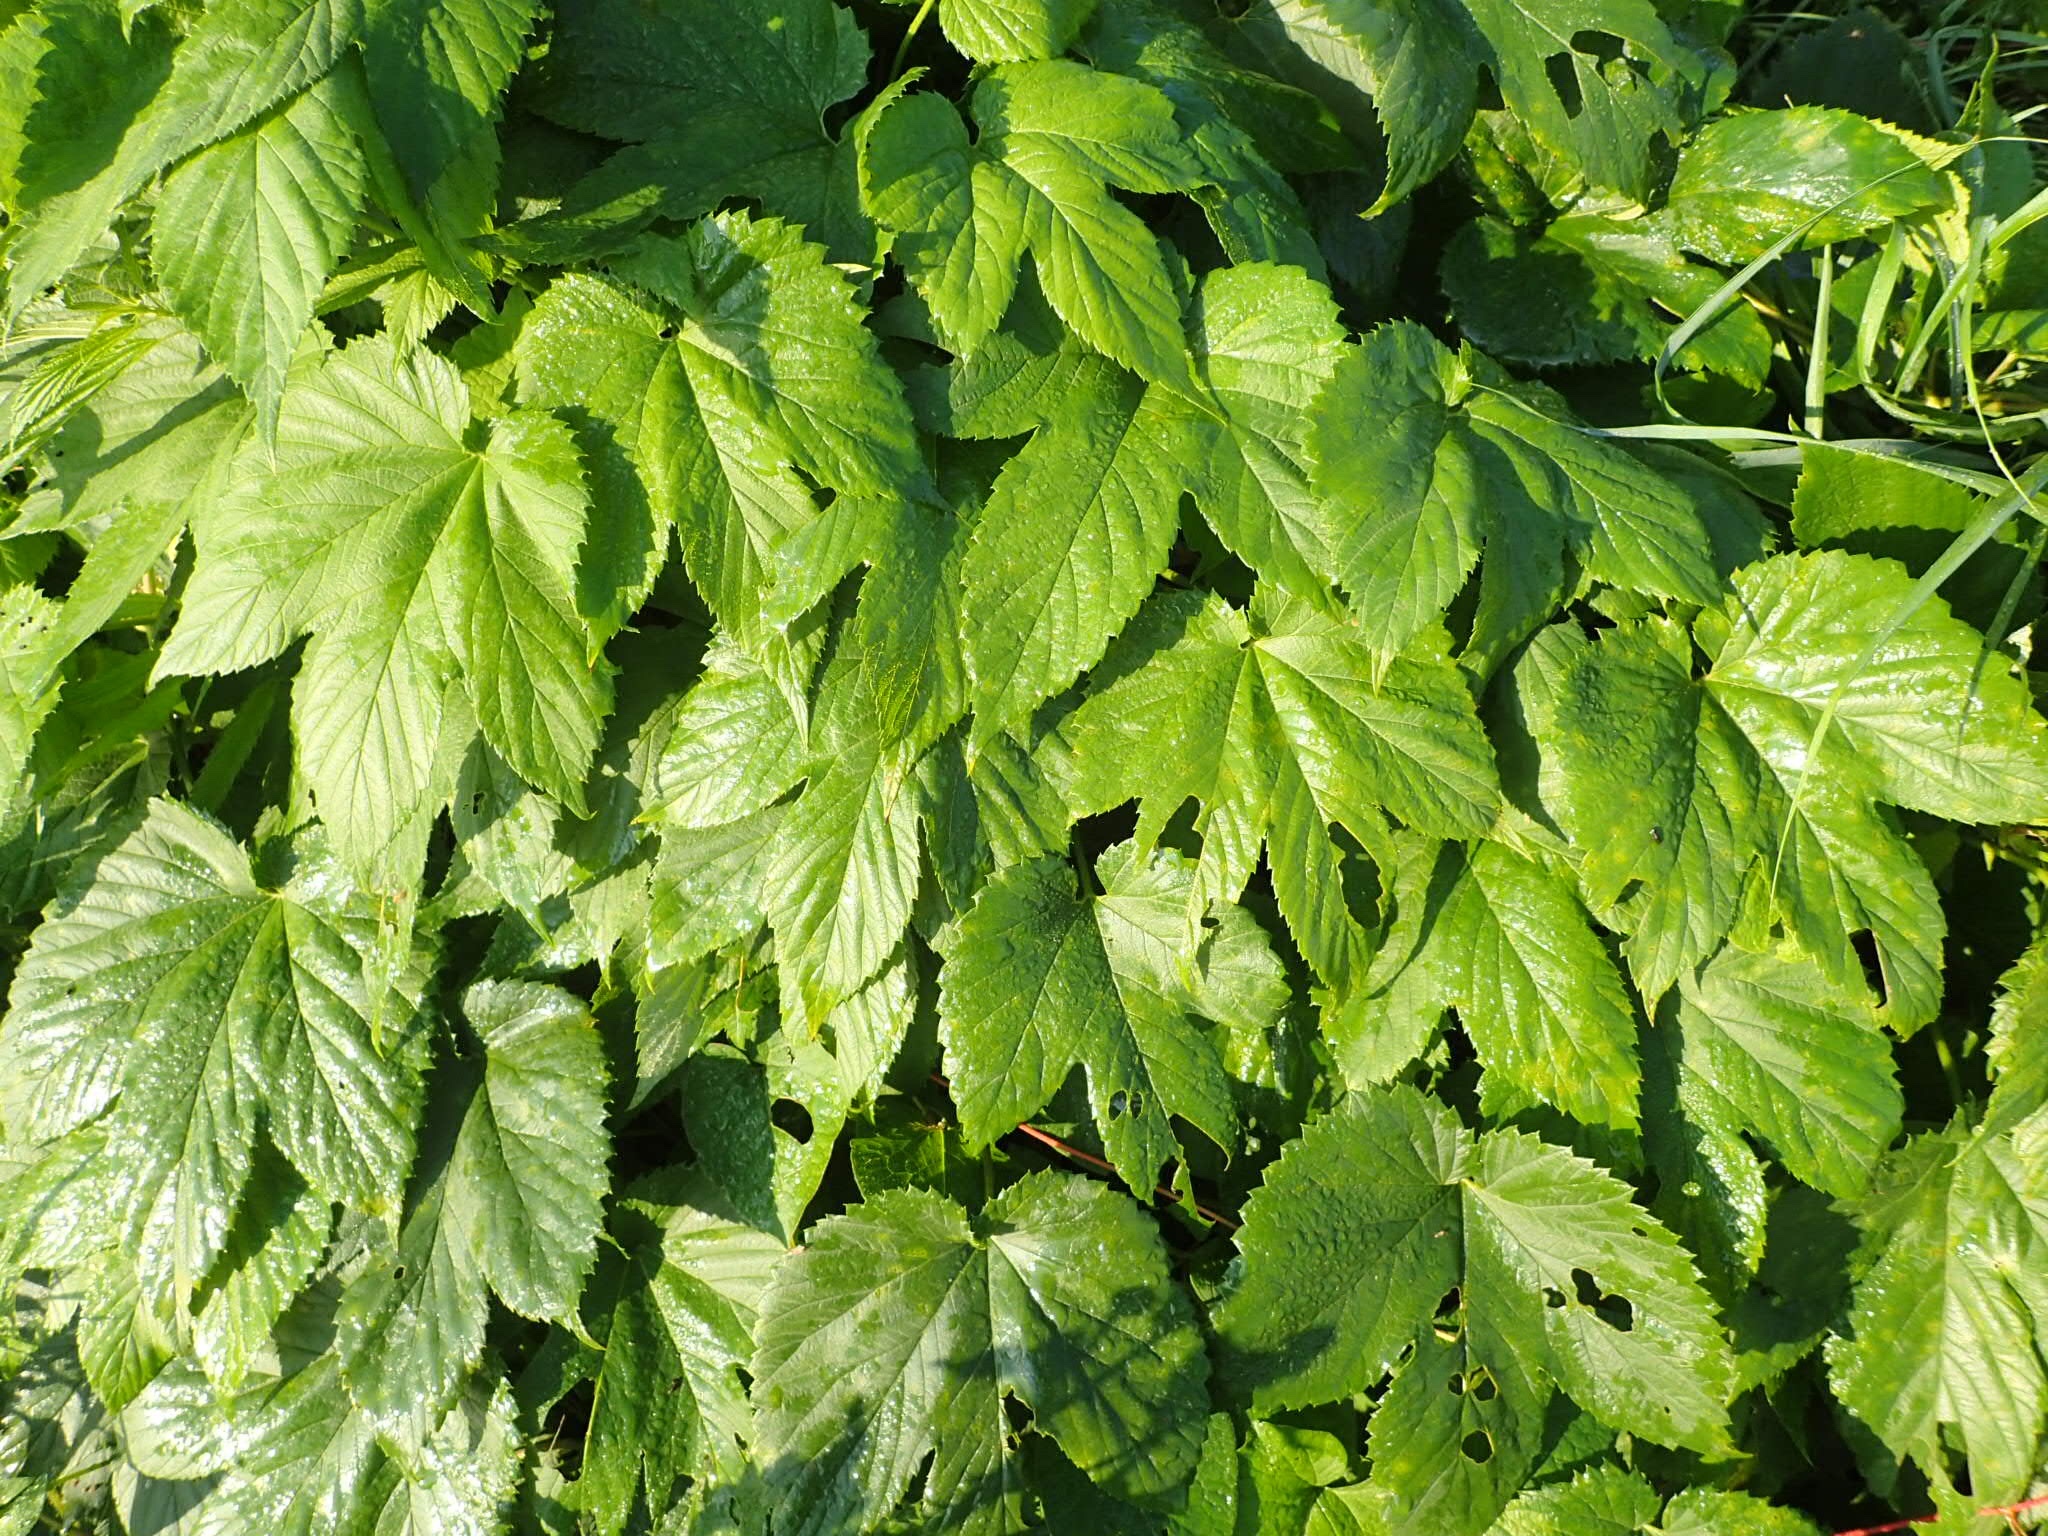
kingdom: Plantae
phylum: Tracheophyta
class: Magnoliopsida
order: Rosales
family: Cannabaceae
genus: Humulus
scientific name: Humulus lupulus
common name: Hop
